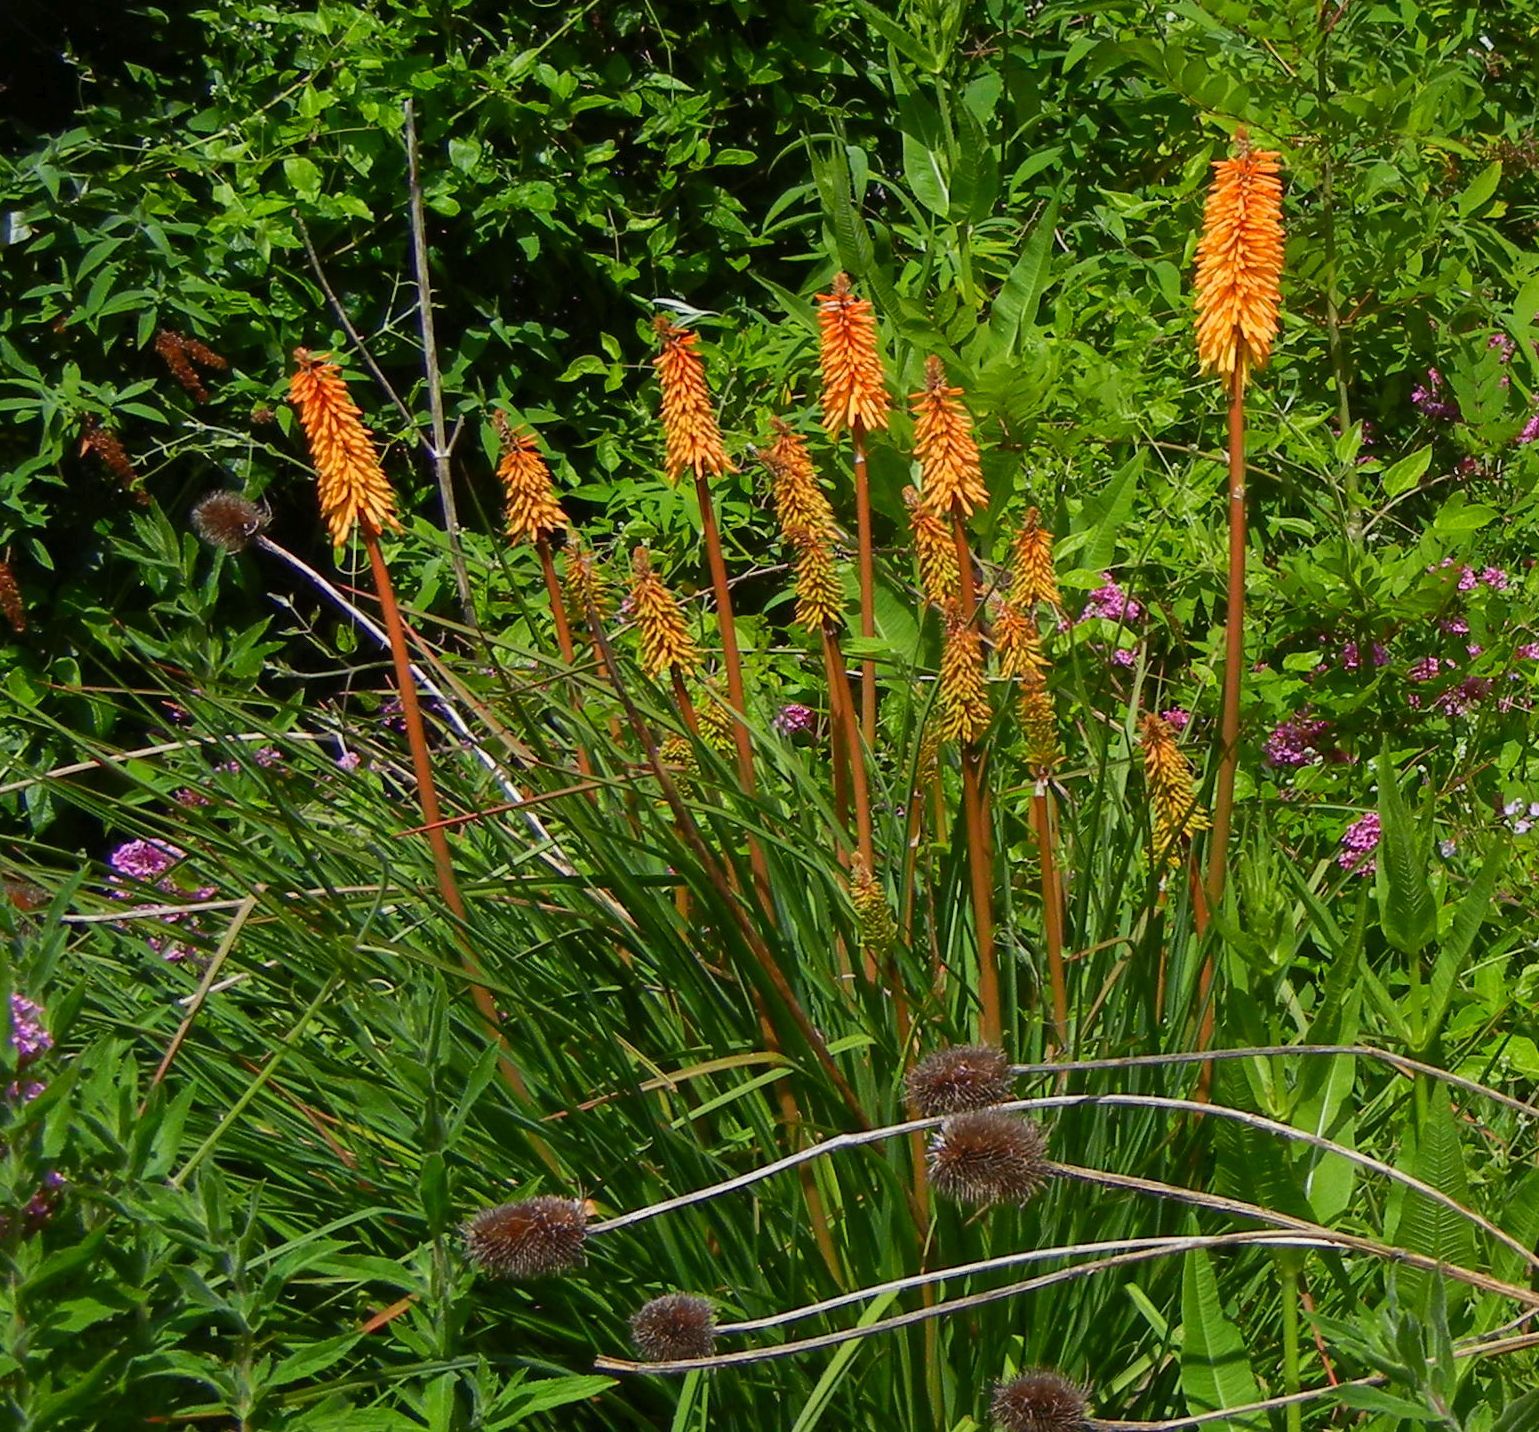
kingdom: Plantae
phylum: Tracheophyta
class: Liliopsida
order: Asparagales
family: Asphodelaceae
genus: Kniphofia
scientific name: Kniphofia uvaria
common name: Red-hot-poker
